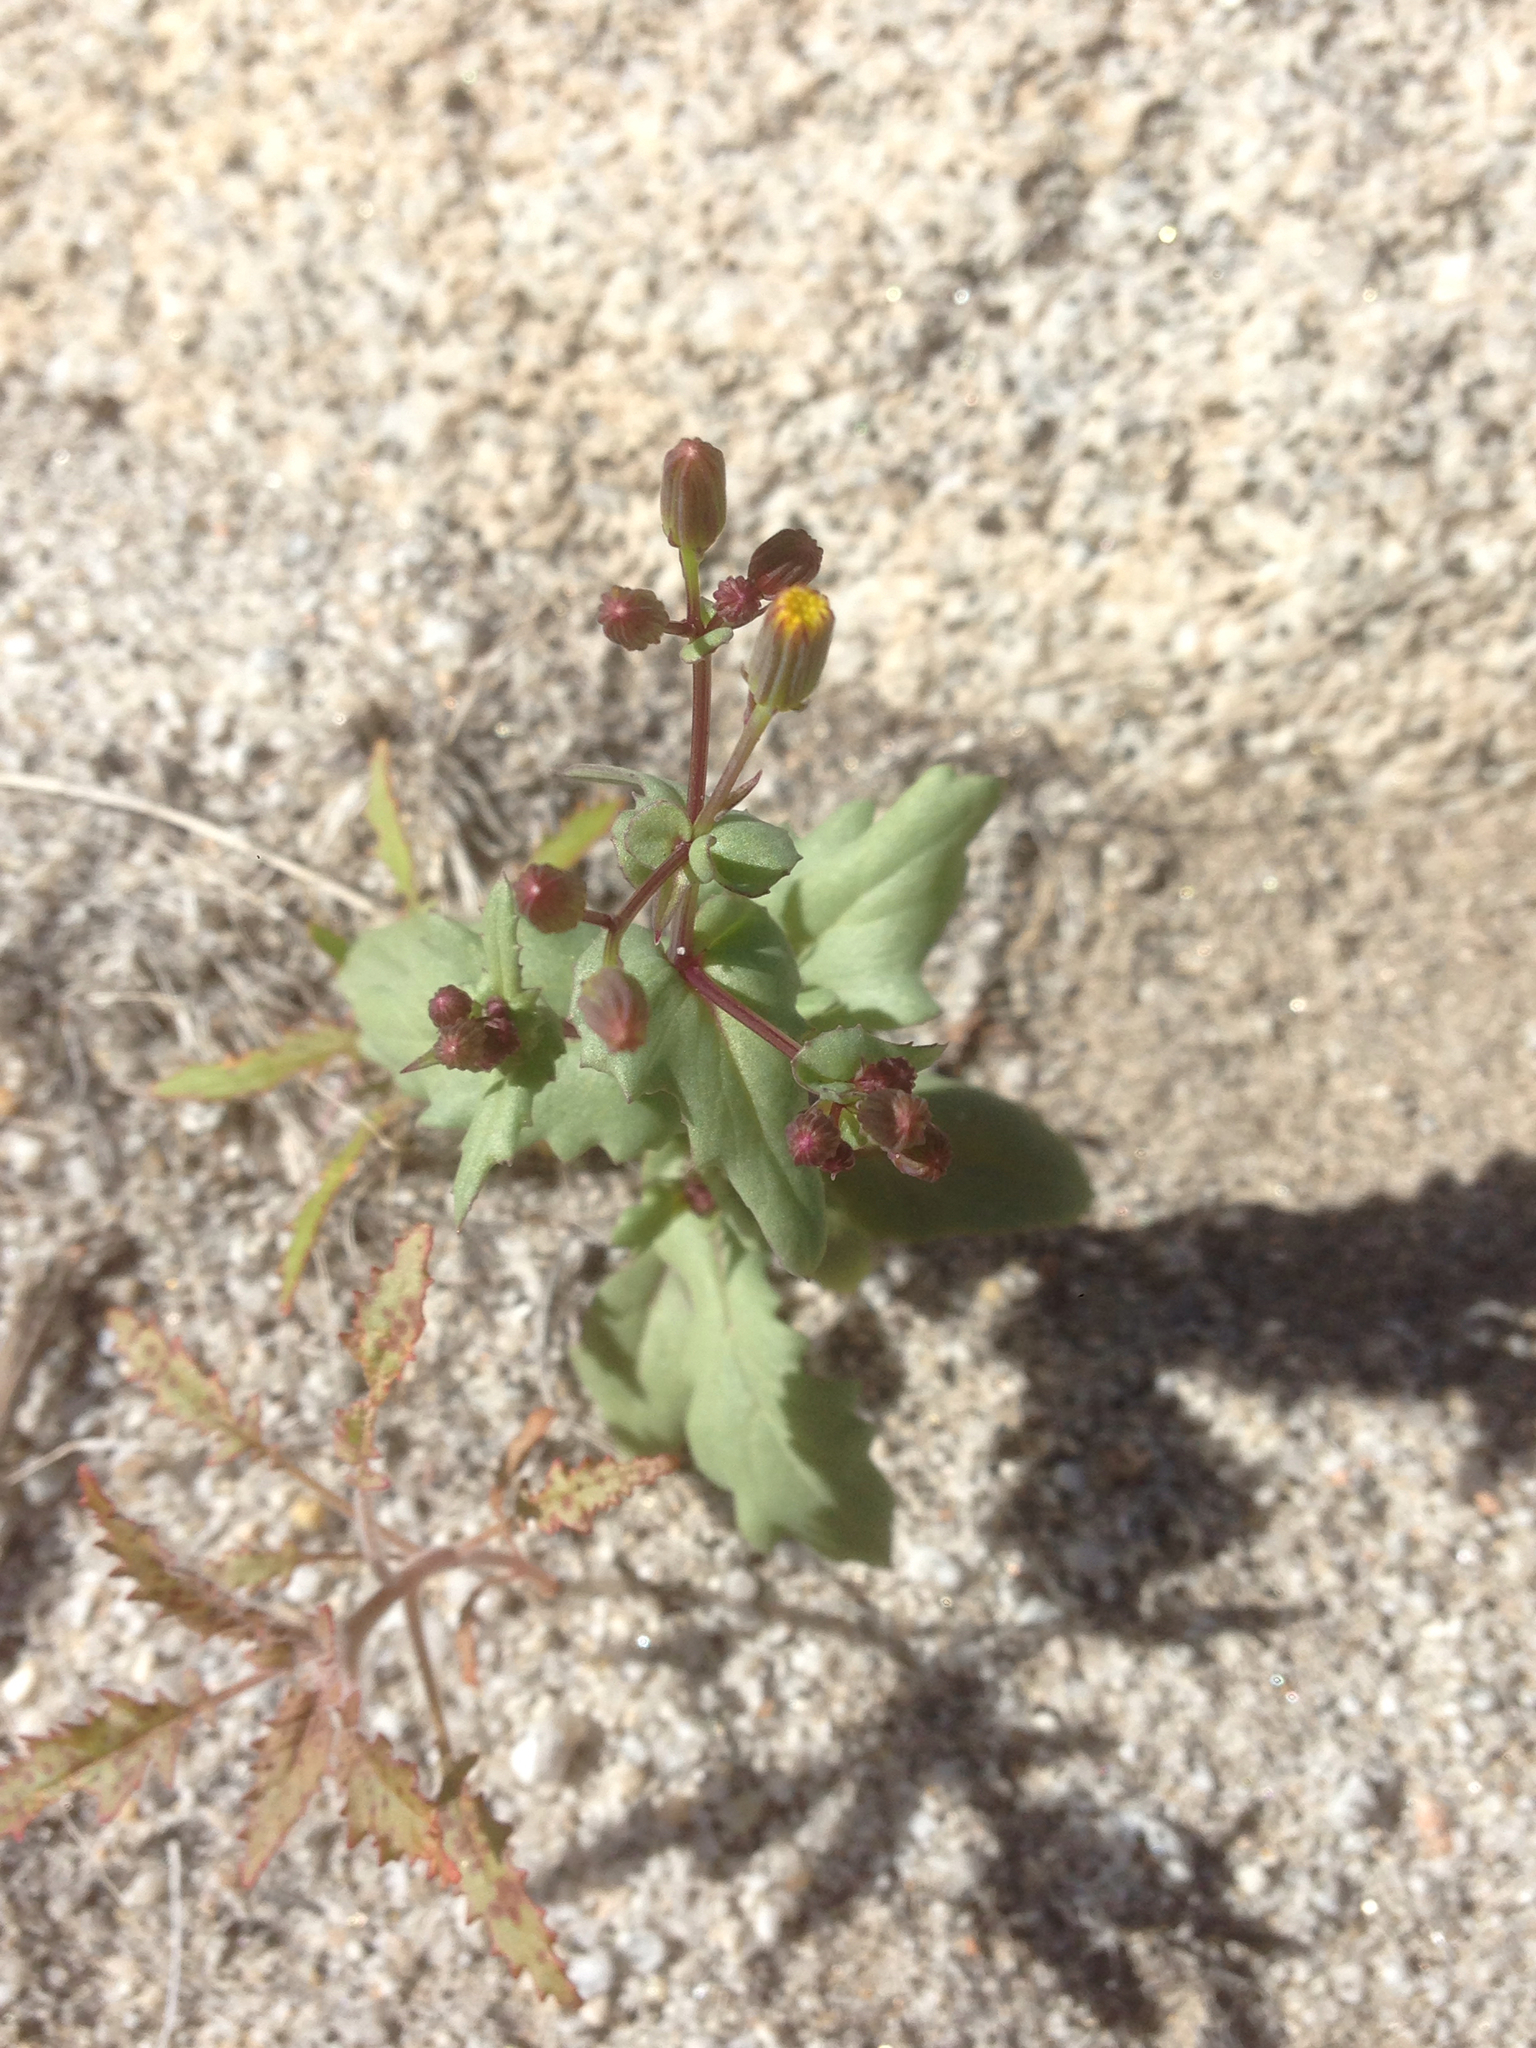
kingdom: Plantae
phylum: Tracheophyta
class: Magnoliopsida
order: Asterales
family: Asteraceae
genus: Senecio
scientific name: Senecio mohavensis
